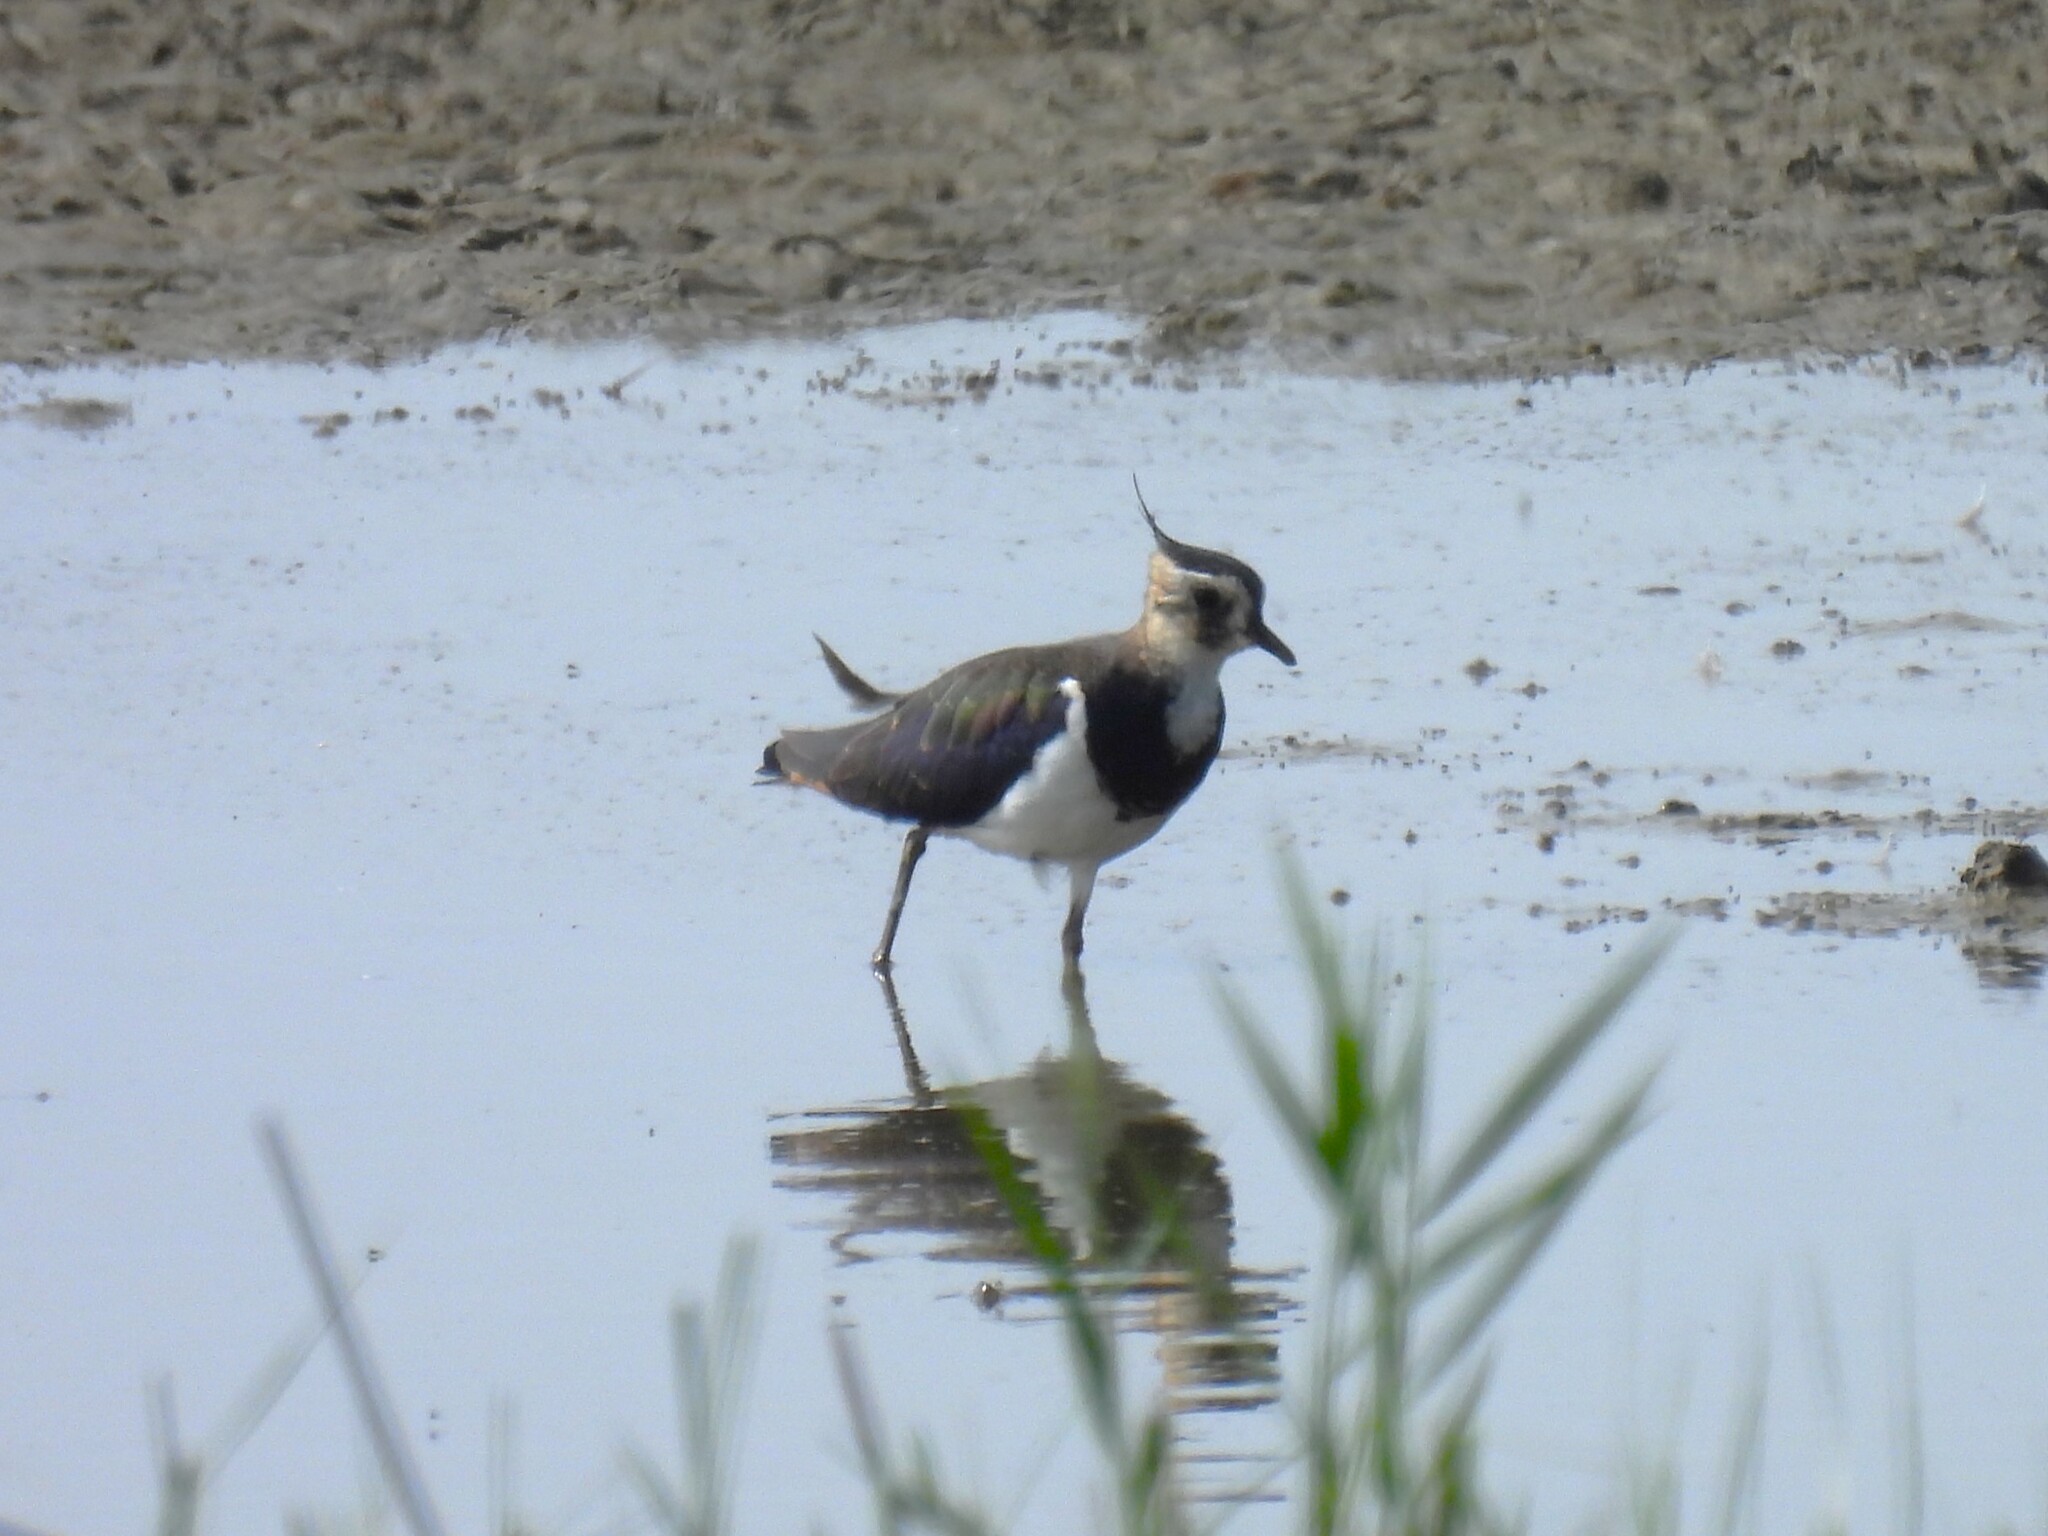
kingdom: Animalia
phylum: Chordata
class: Aves
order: Charadriiformes
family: Charadriidae
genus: Vanellus
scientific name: Vanellus vanellus
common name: Northern lapwing
